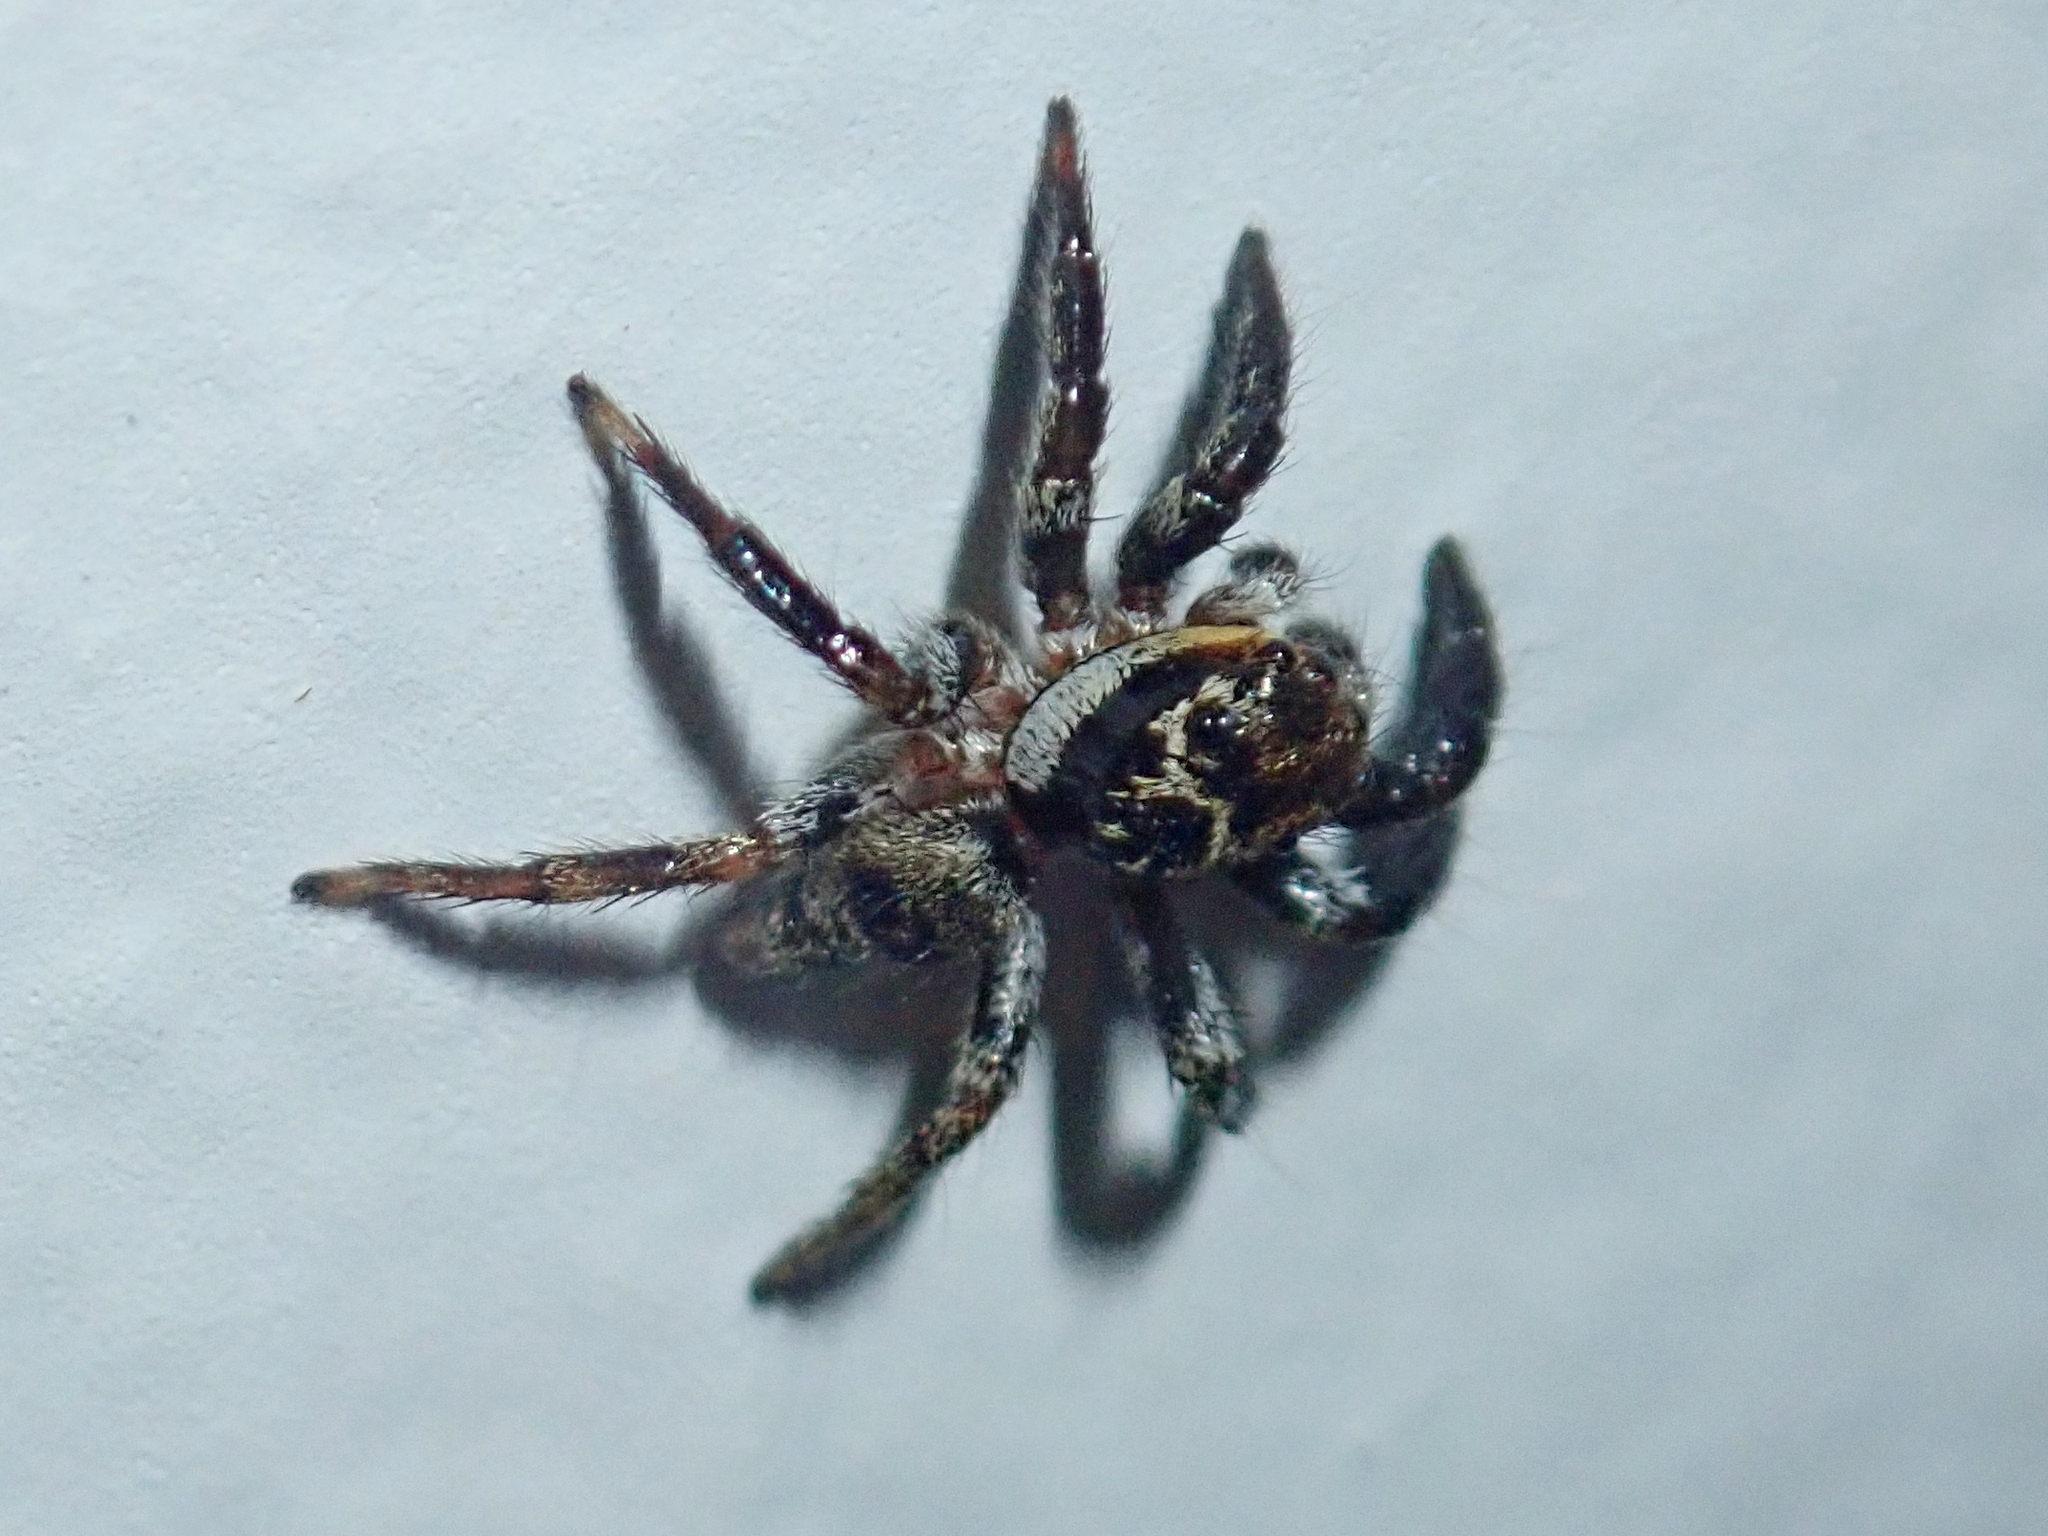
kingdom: Animalia
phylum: Arthropoda
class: Arachnida
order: Araneae
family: Salticidae
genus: Corythalia
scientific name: Corythalia conferta
